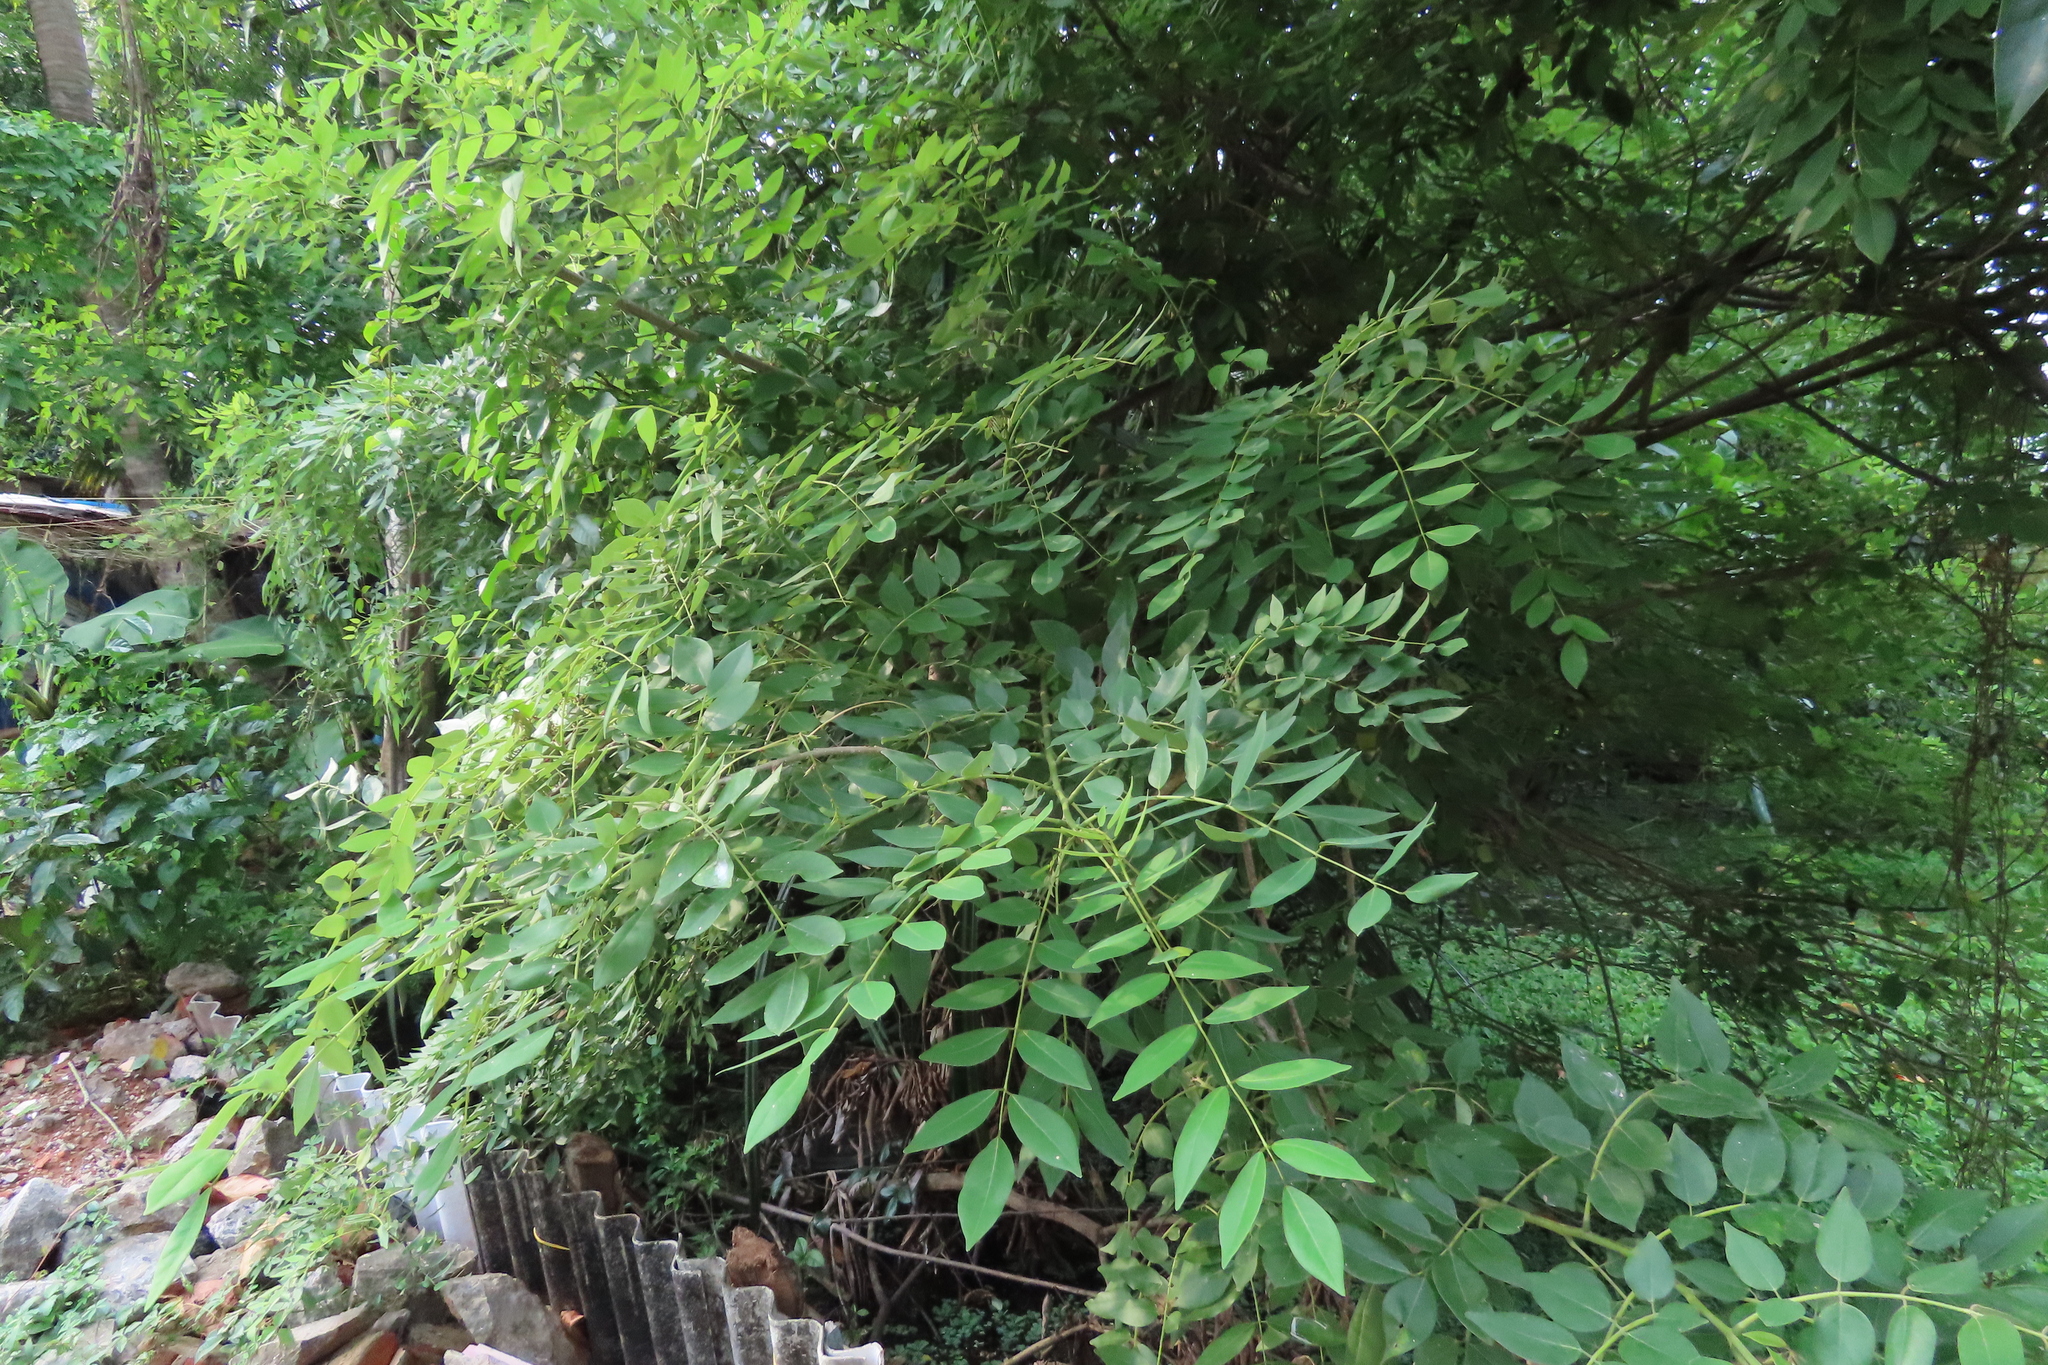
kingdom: Plantae
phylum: Tracheophyta
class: Magnoliopsida
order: Fabales
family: Fabaceae
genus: Gliricidia
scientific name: Gliricidia sepium
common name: Quickstick
